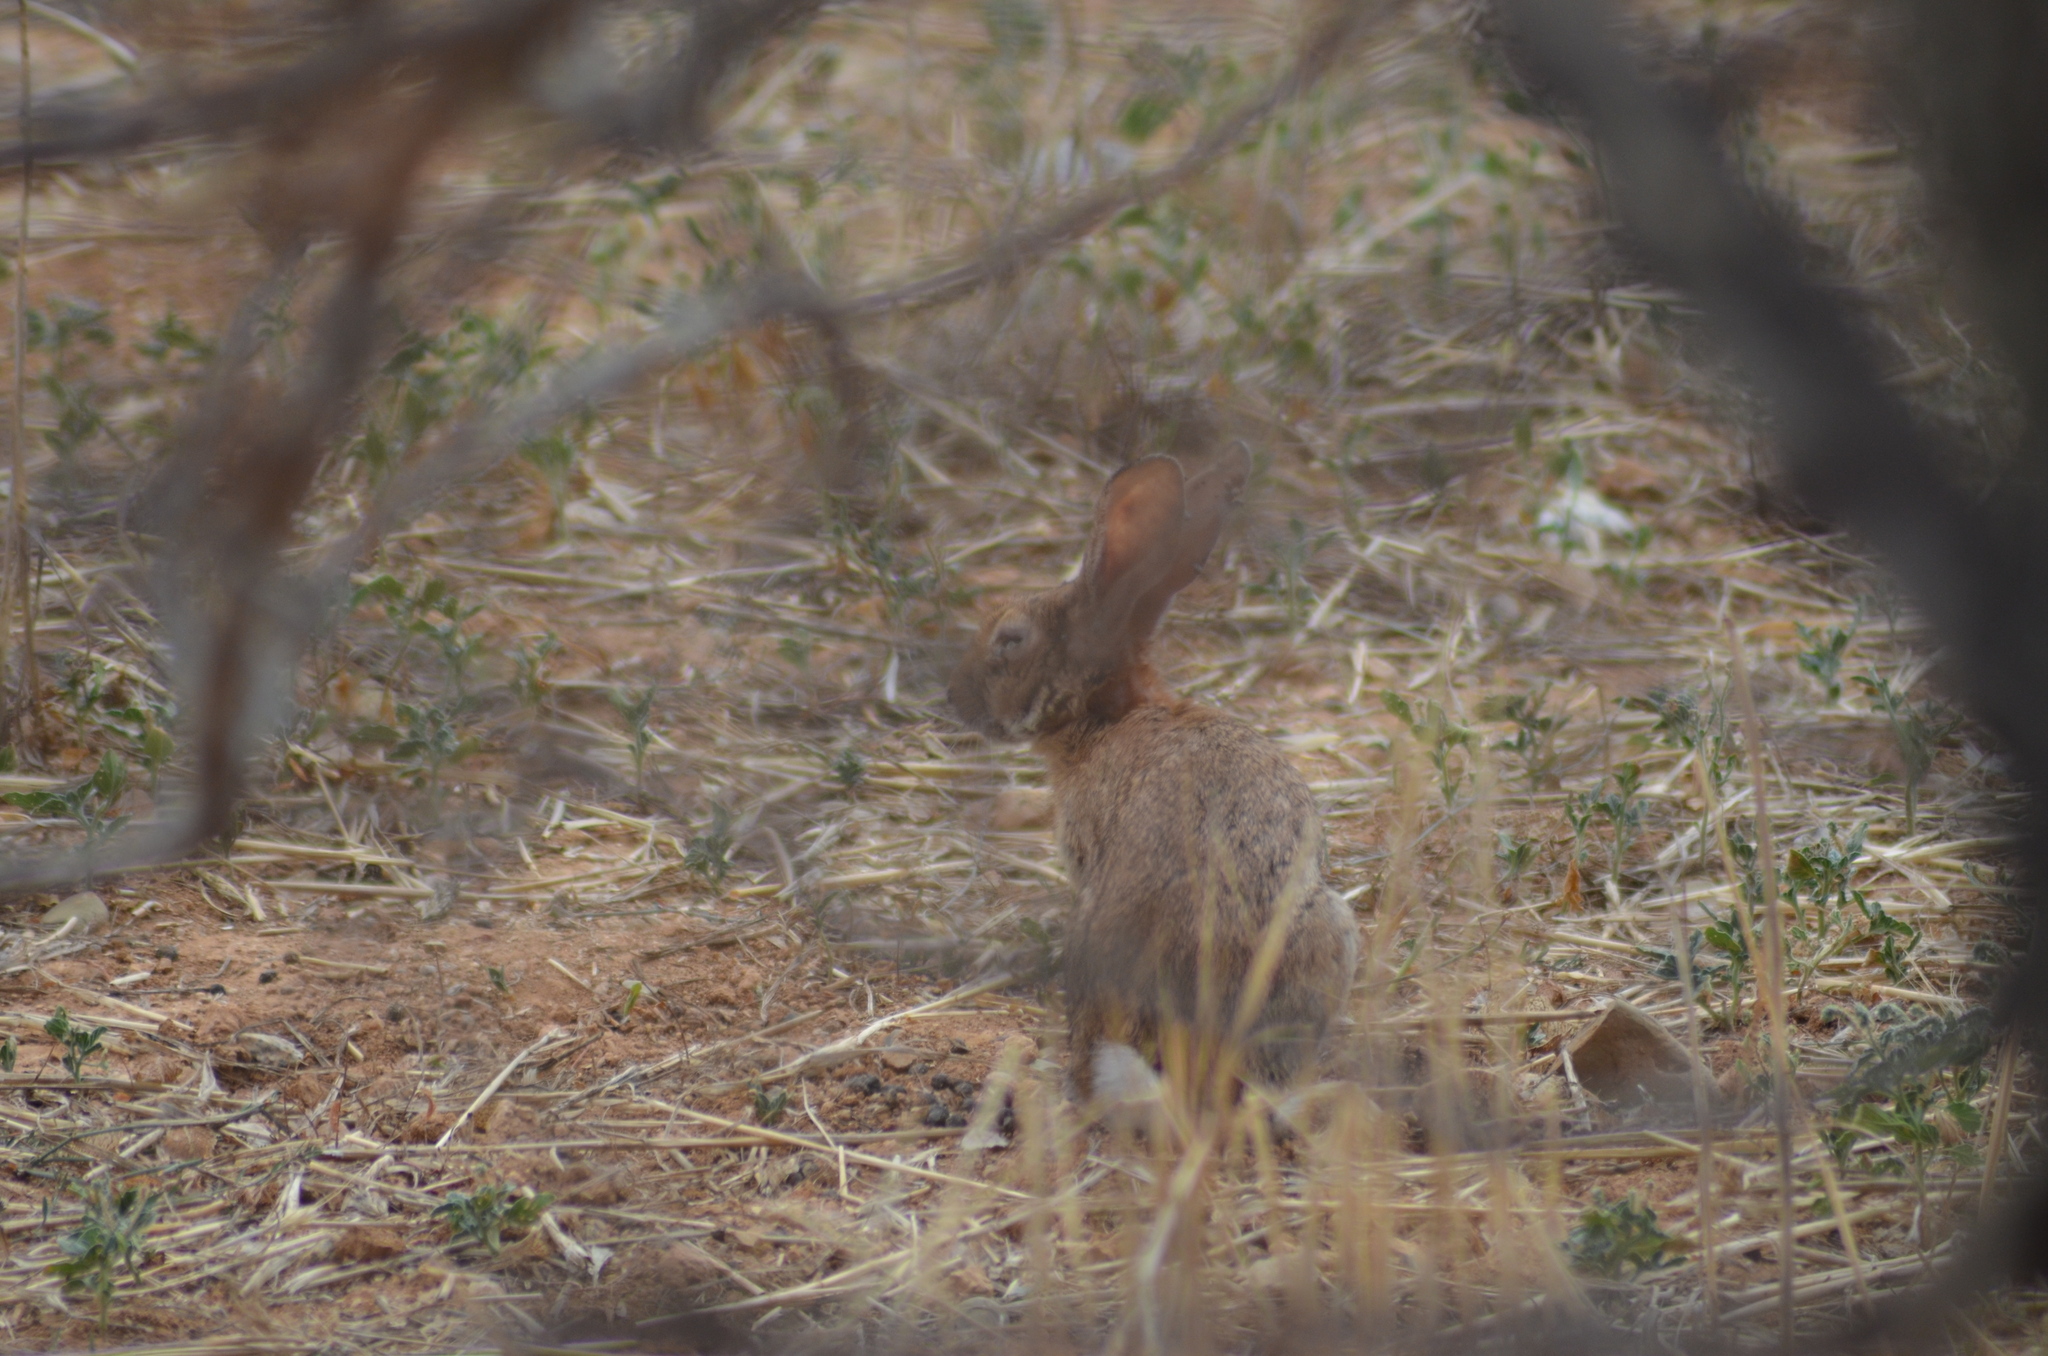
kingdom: Animalia
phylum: Chordata
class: Mammalia
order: Lagomorpha
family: Leporidae
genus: Oryctolagus
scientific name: Oryctolagus cuniculus
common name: European rabbit
